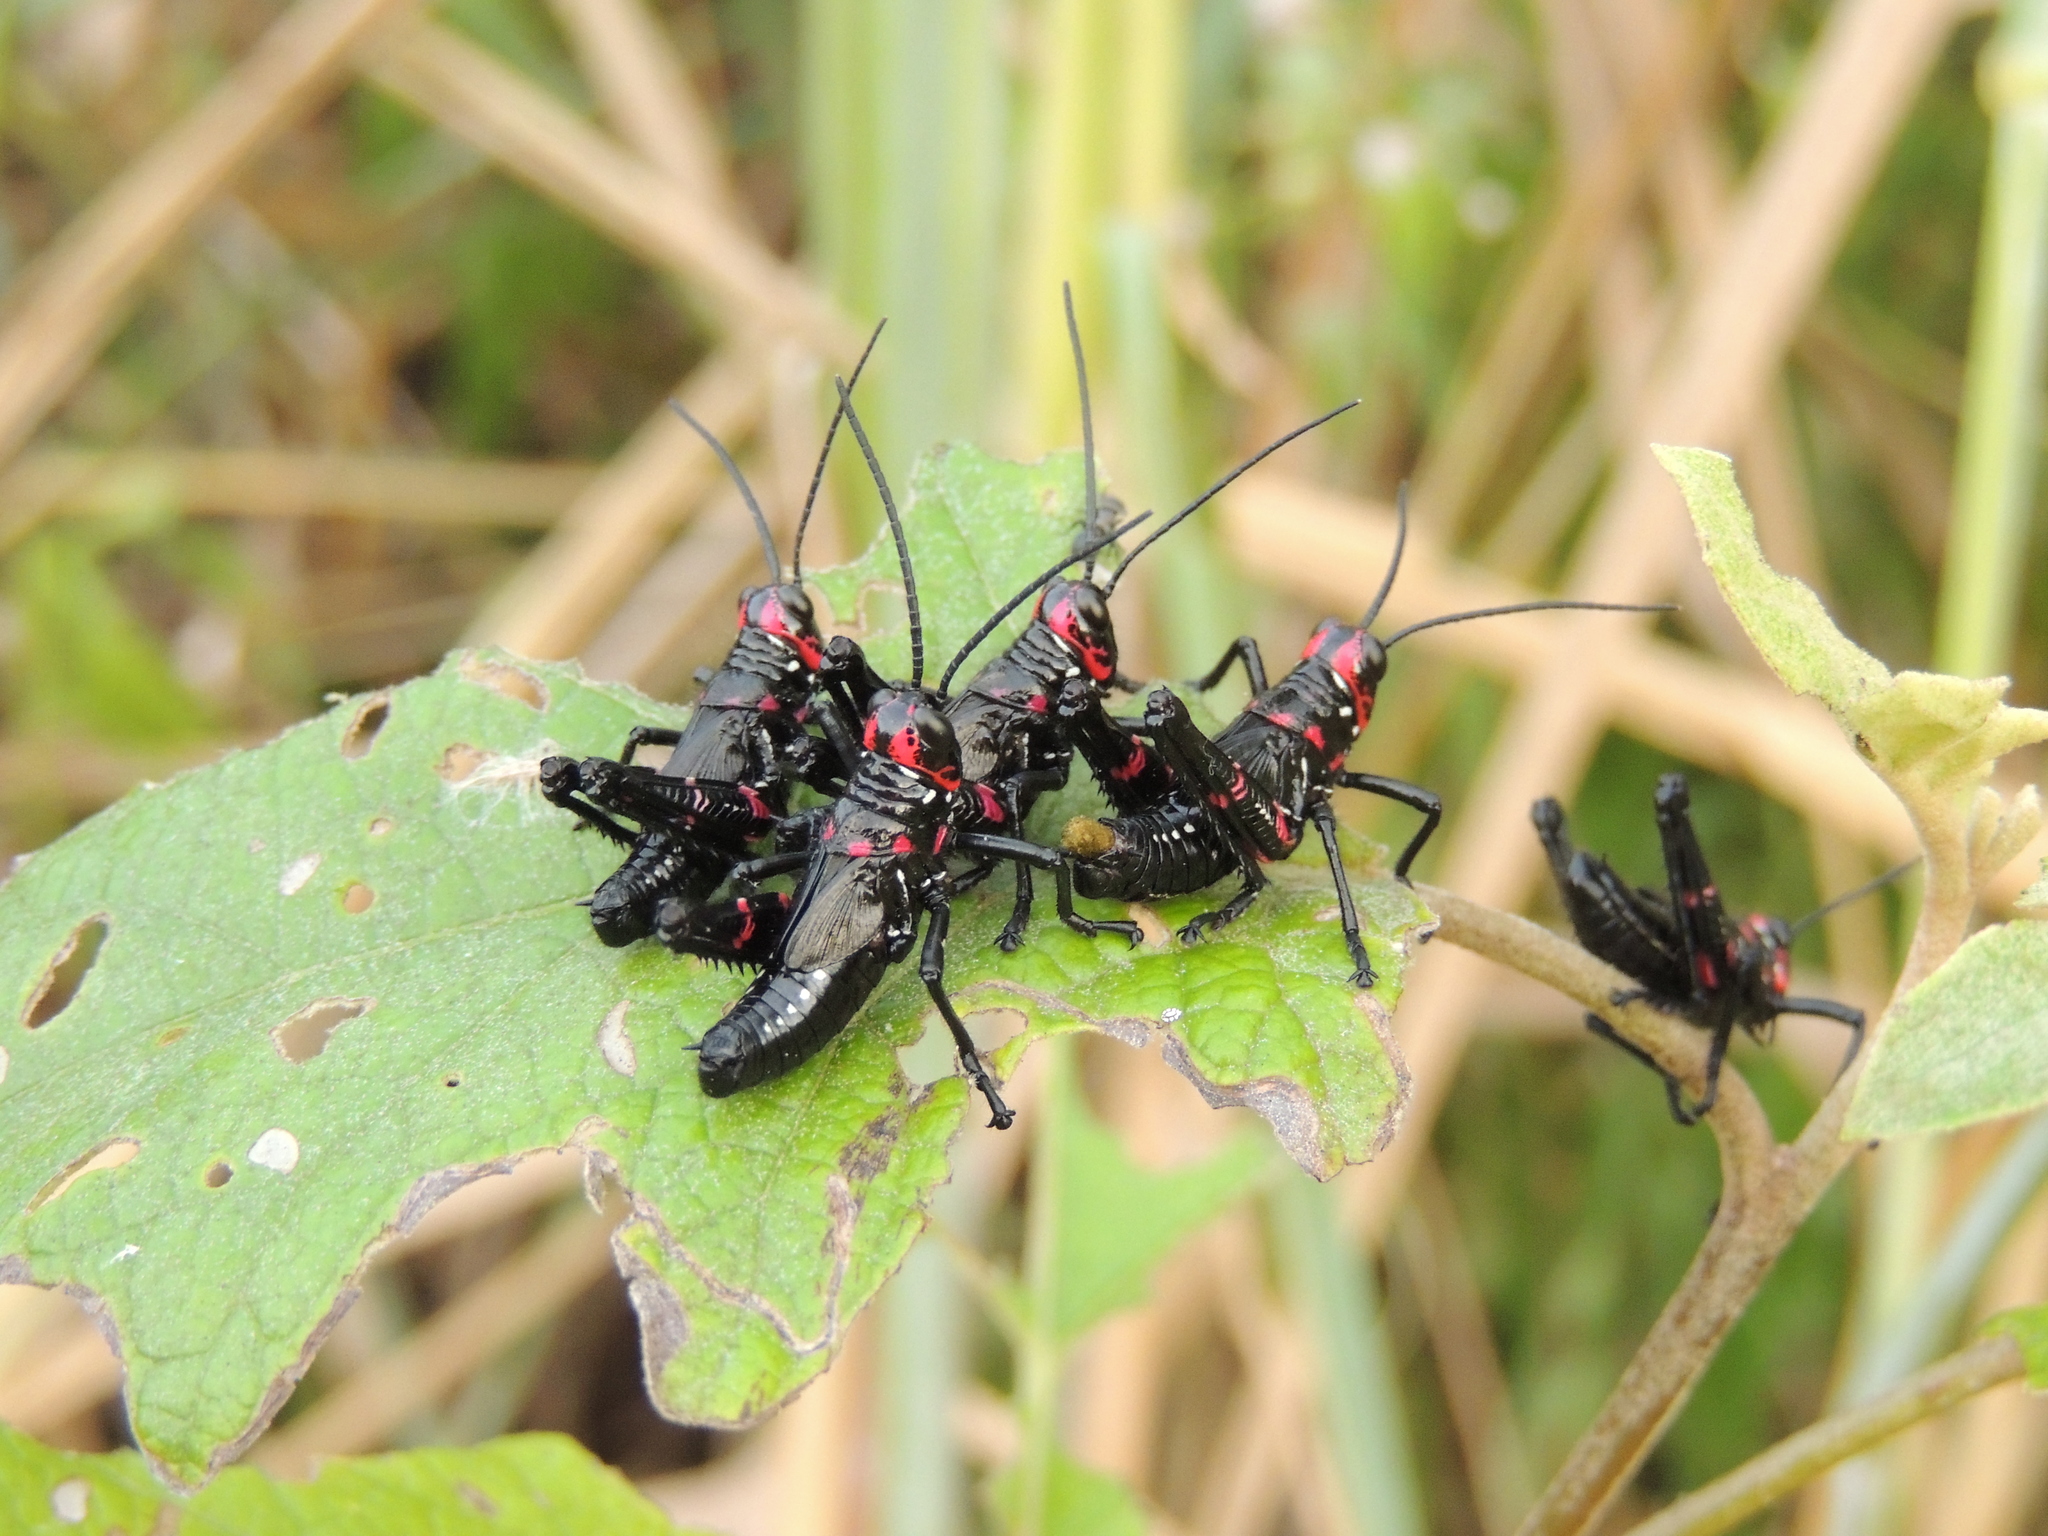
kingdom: Animalia
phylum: Arthropoda
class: Insecta
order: Orthoptera
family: Romaleidae
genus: Chromacris
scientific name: Chromacris speciosa
